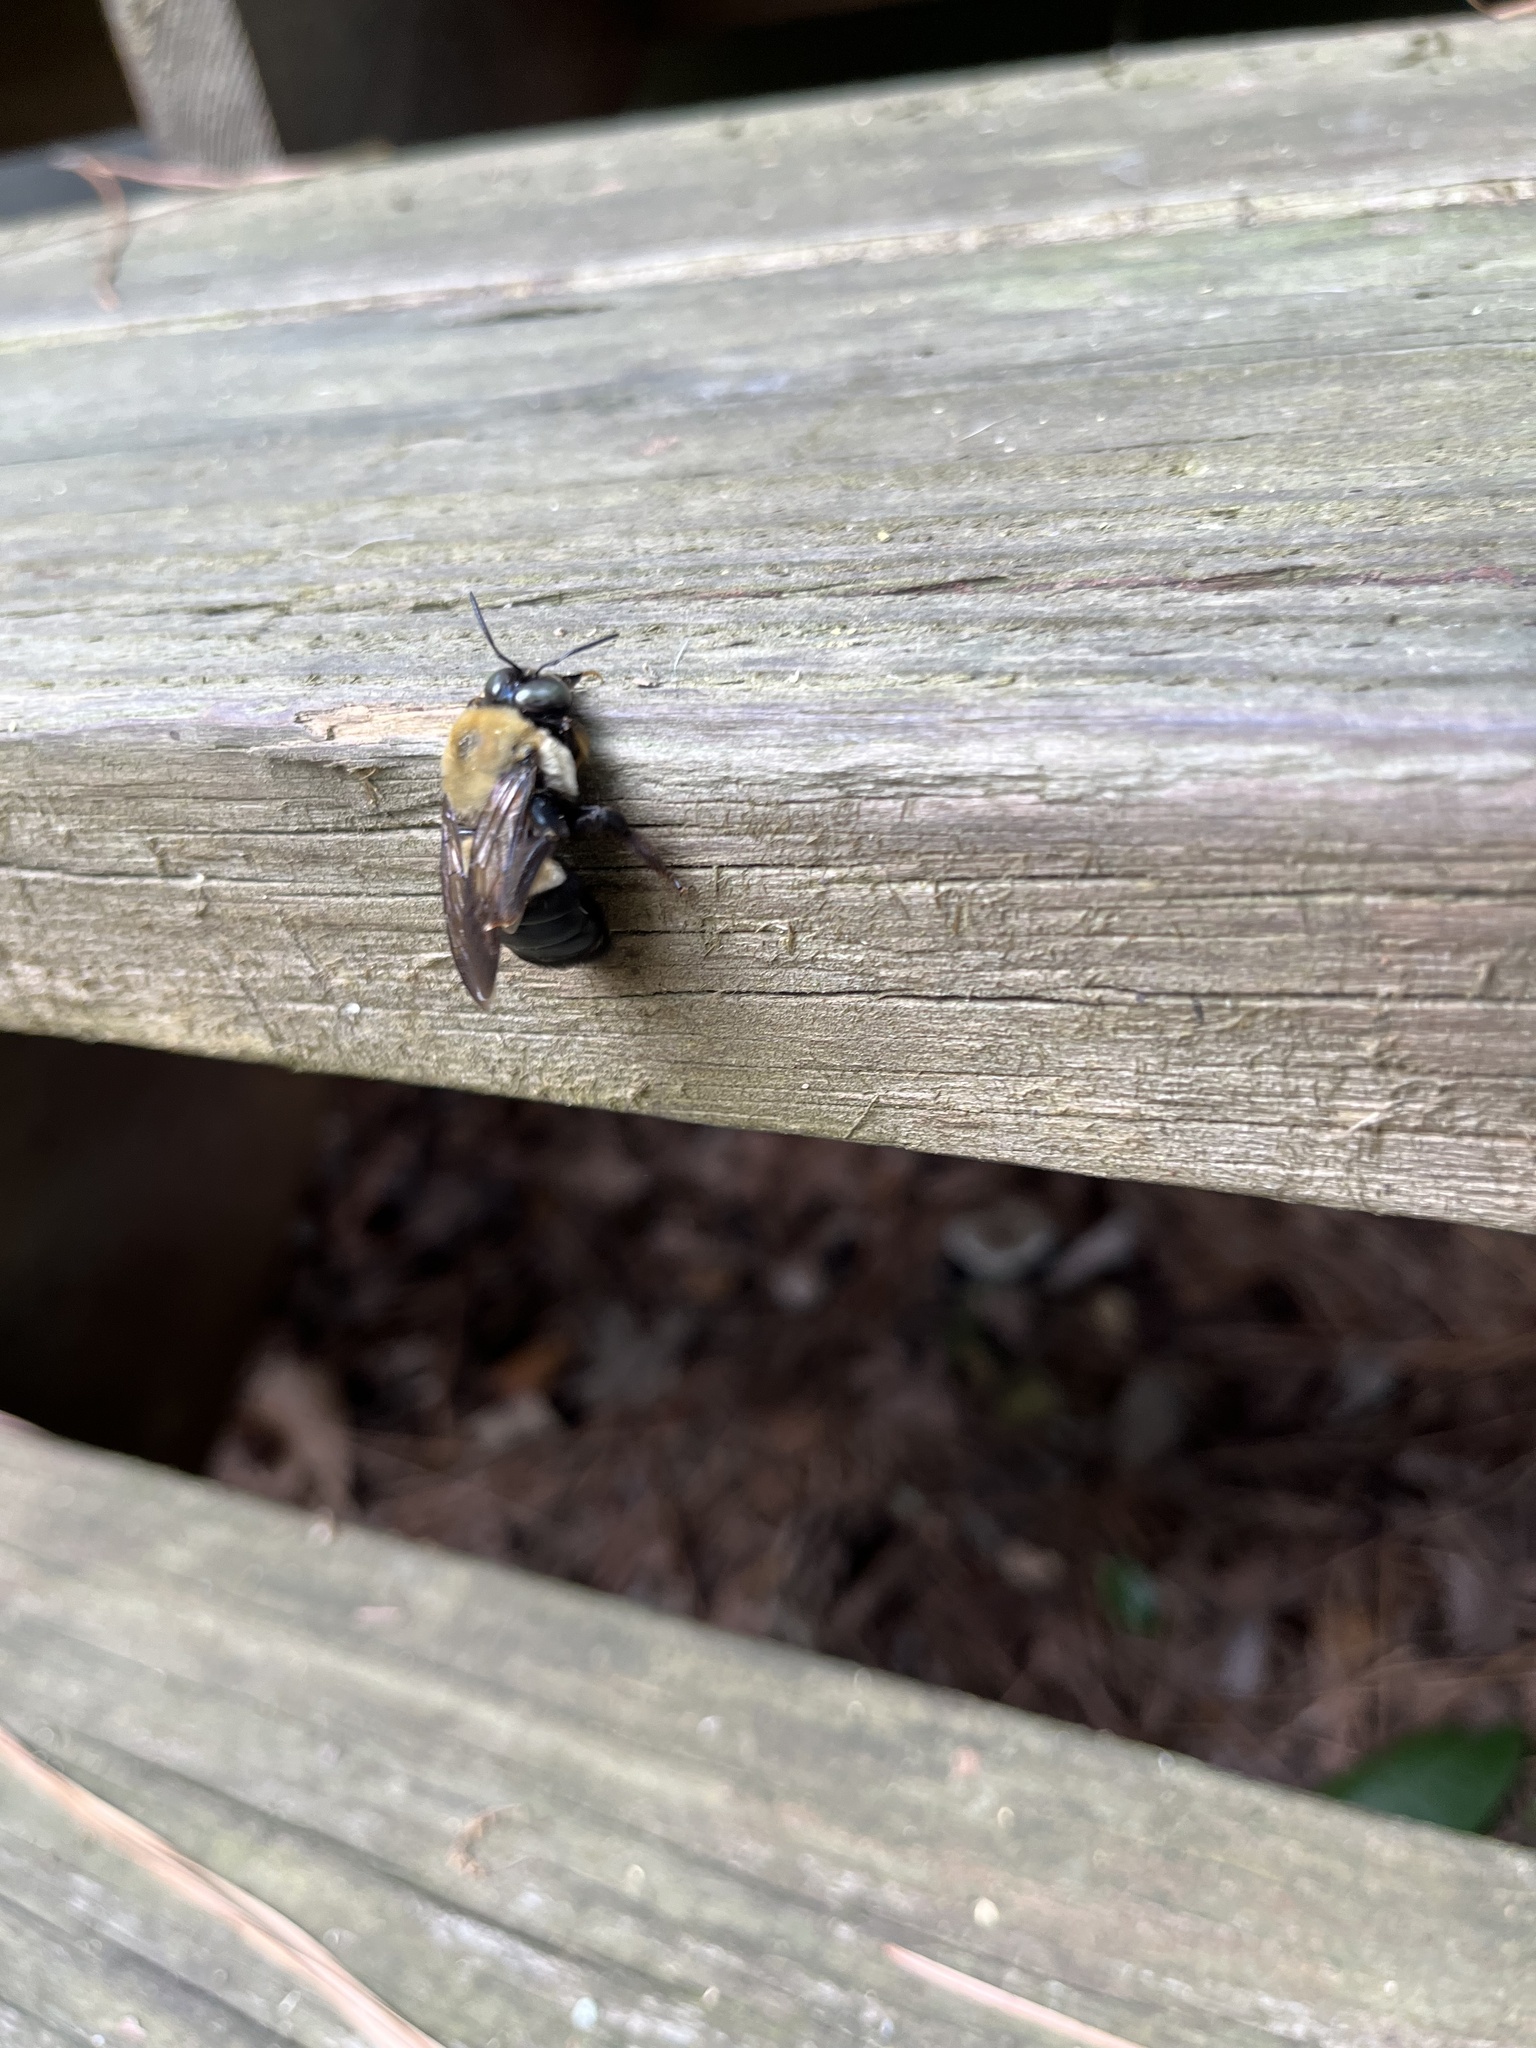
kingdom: Animalia
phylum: Arthropoda
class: Insecta
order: Hymenoptera
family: Apidae
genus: Xylocopa
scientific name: Xylocopa virginica
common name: Carpenter bee
